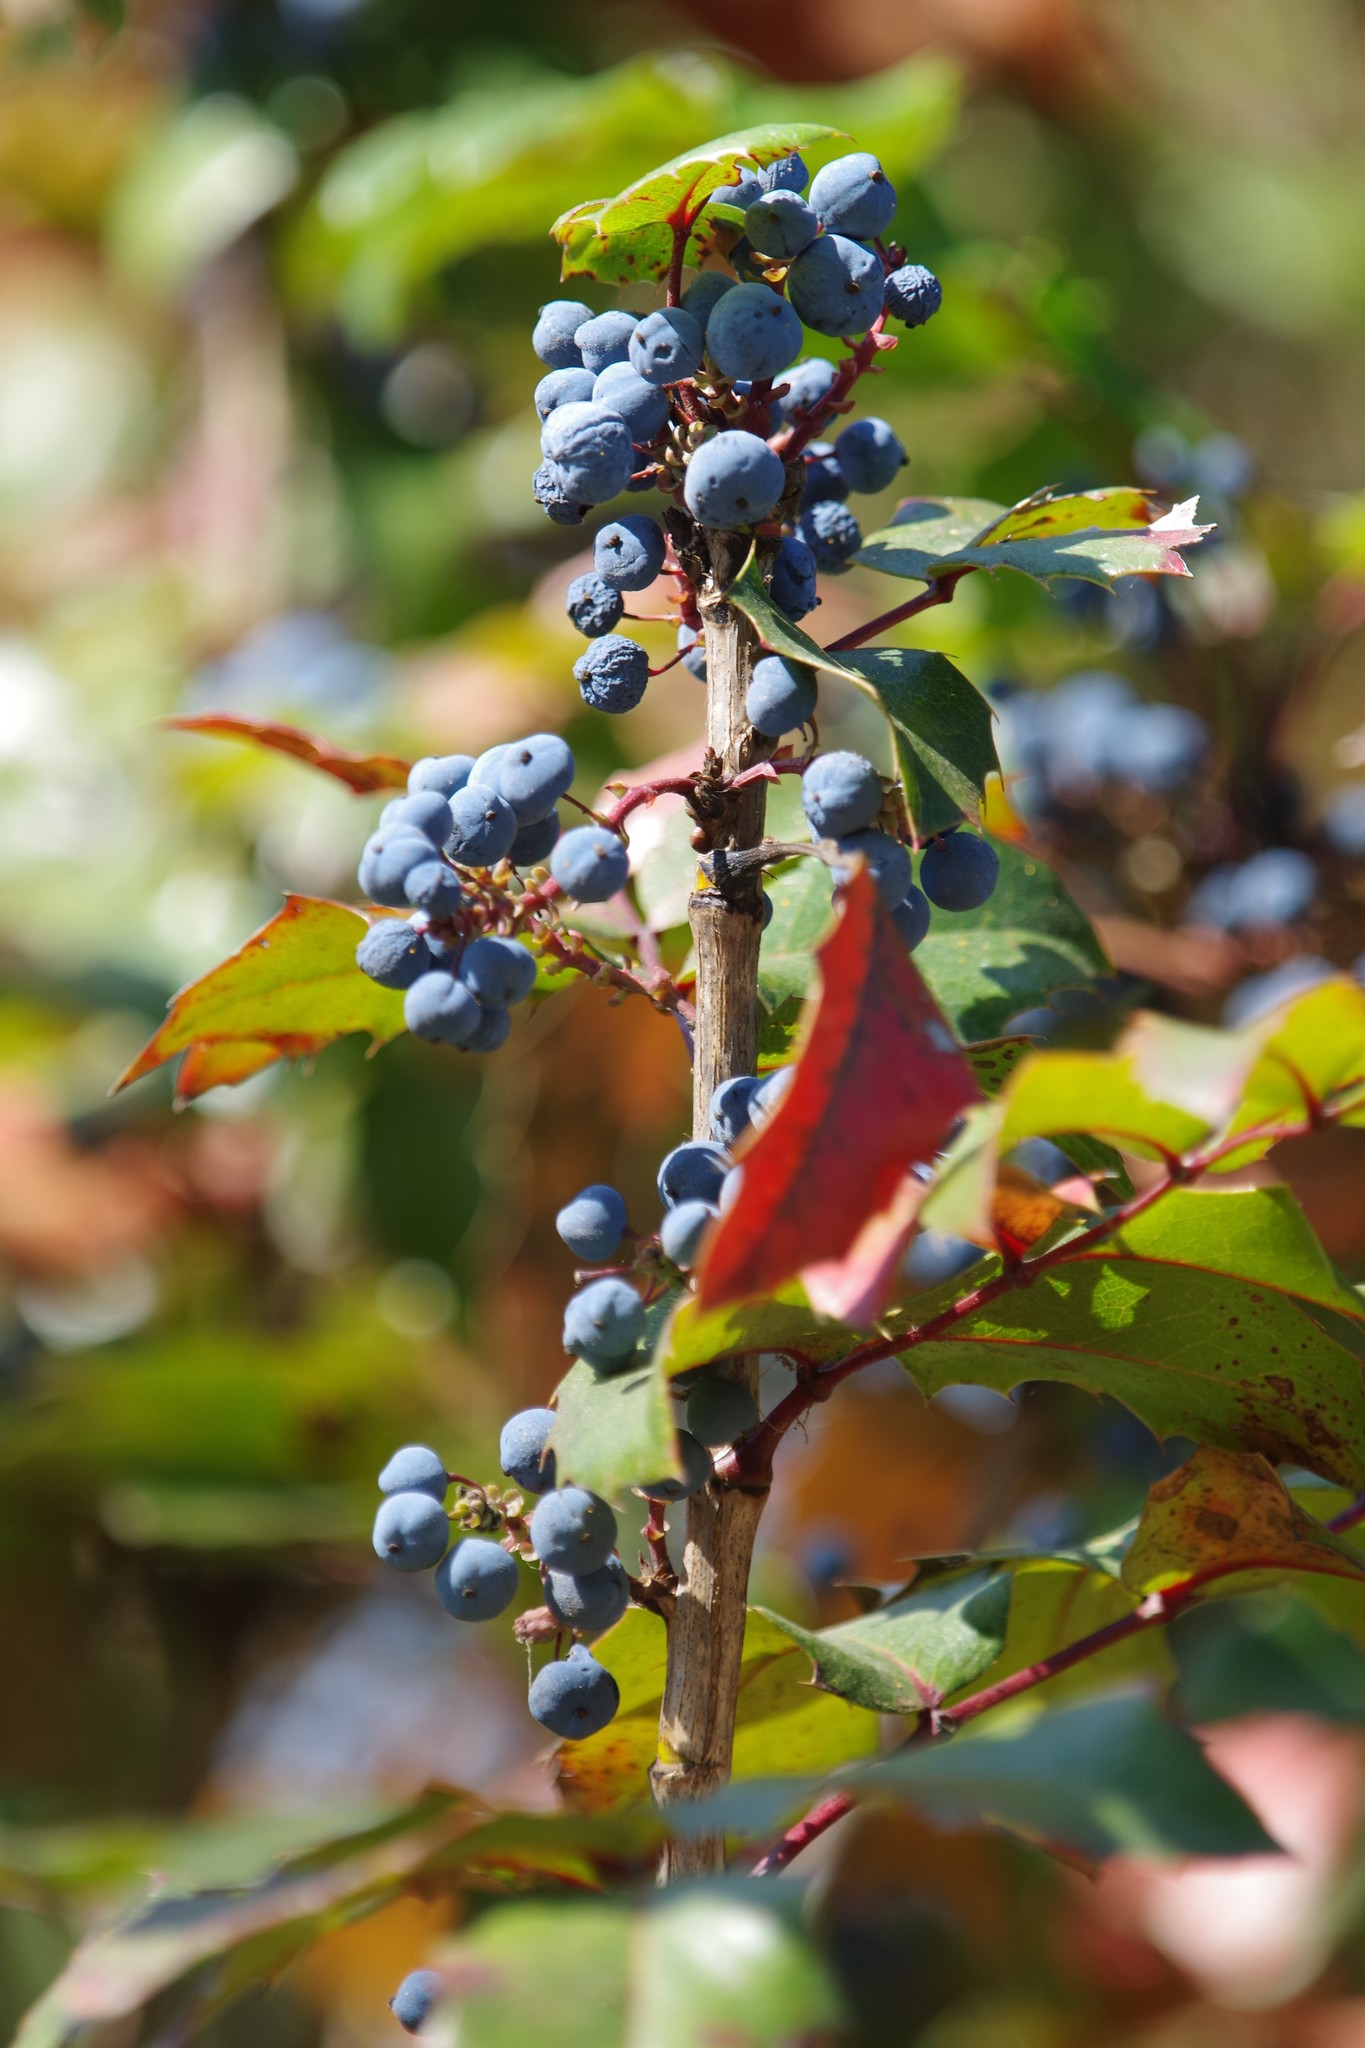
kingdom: Plantae
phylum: Tracheophyta
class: Magnoliopsida
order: Ranunculales
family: Berberidaceae
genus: Mahonia
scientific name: Mahonia aquifolium
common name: Oregon-grape
